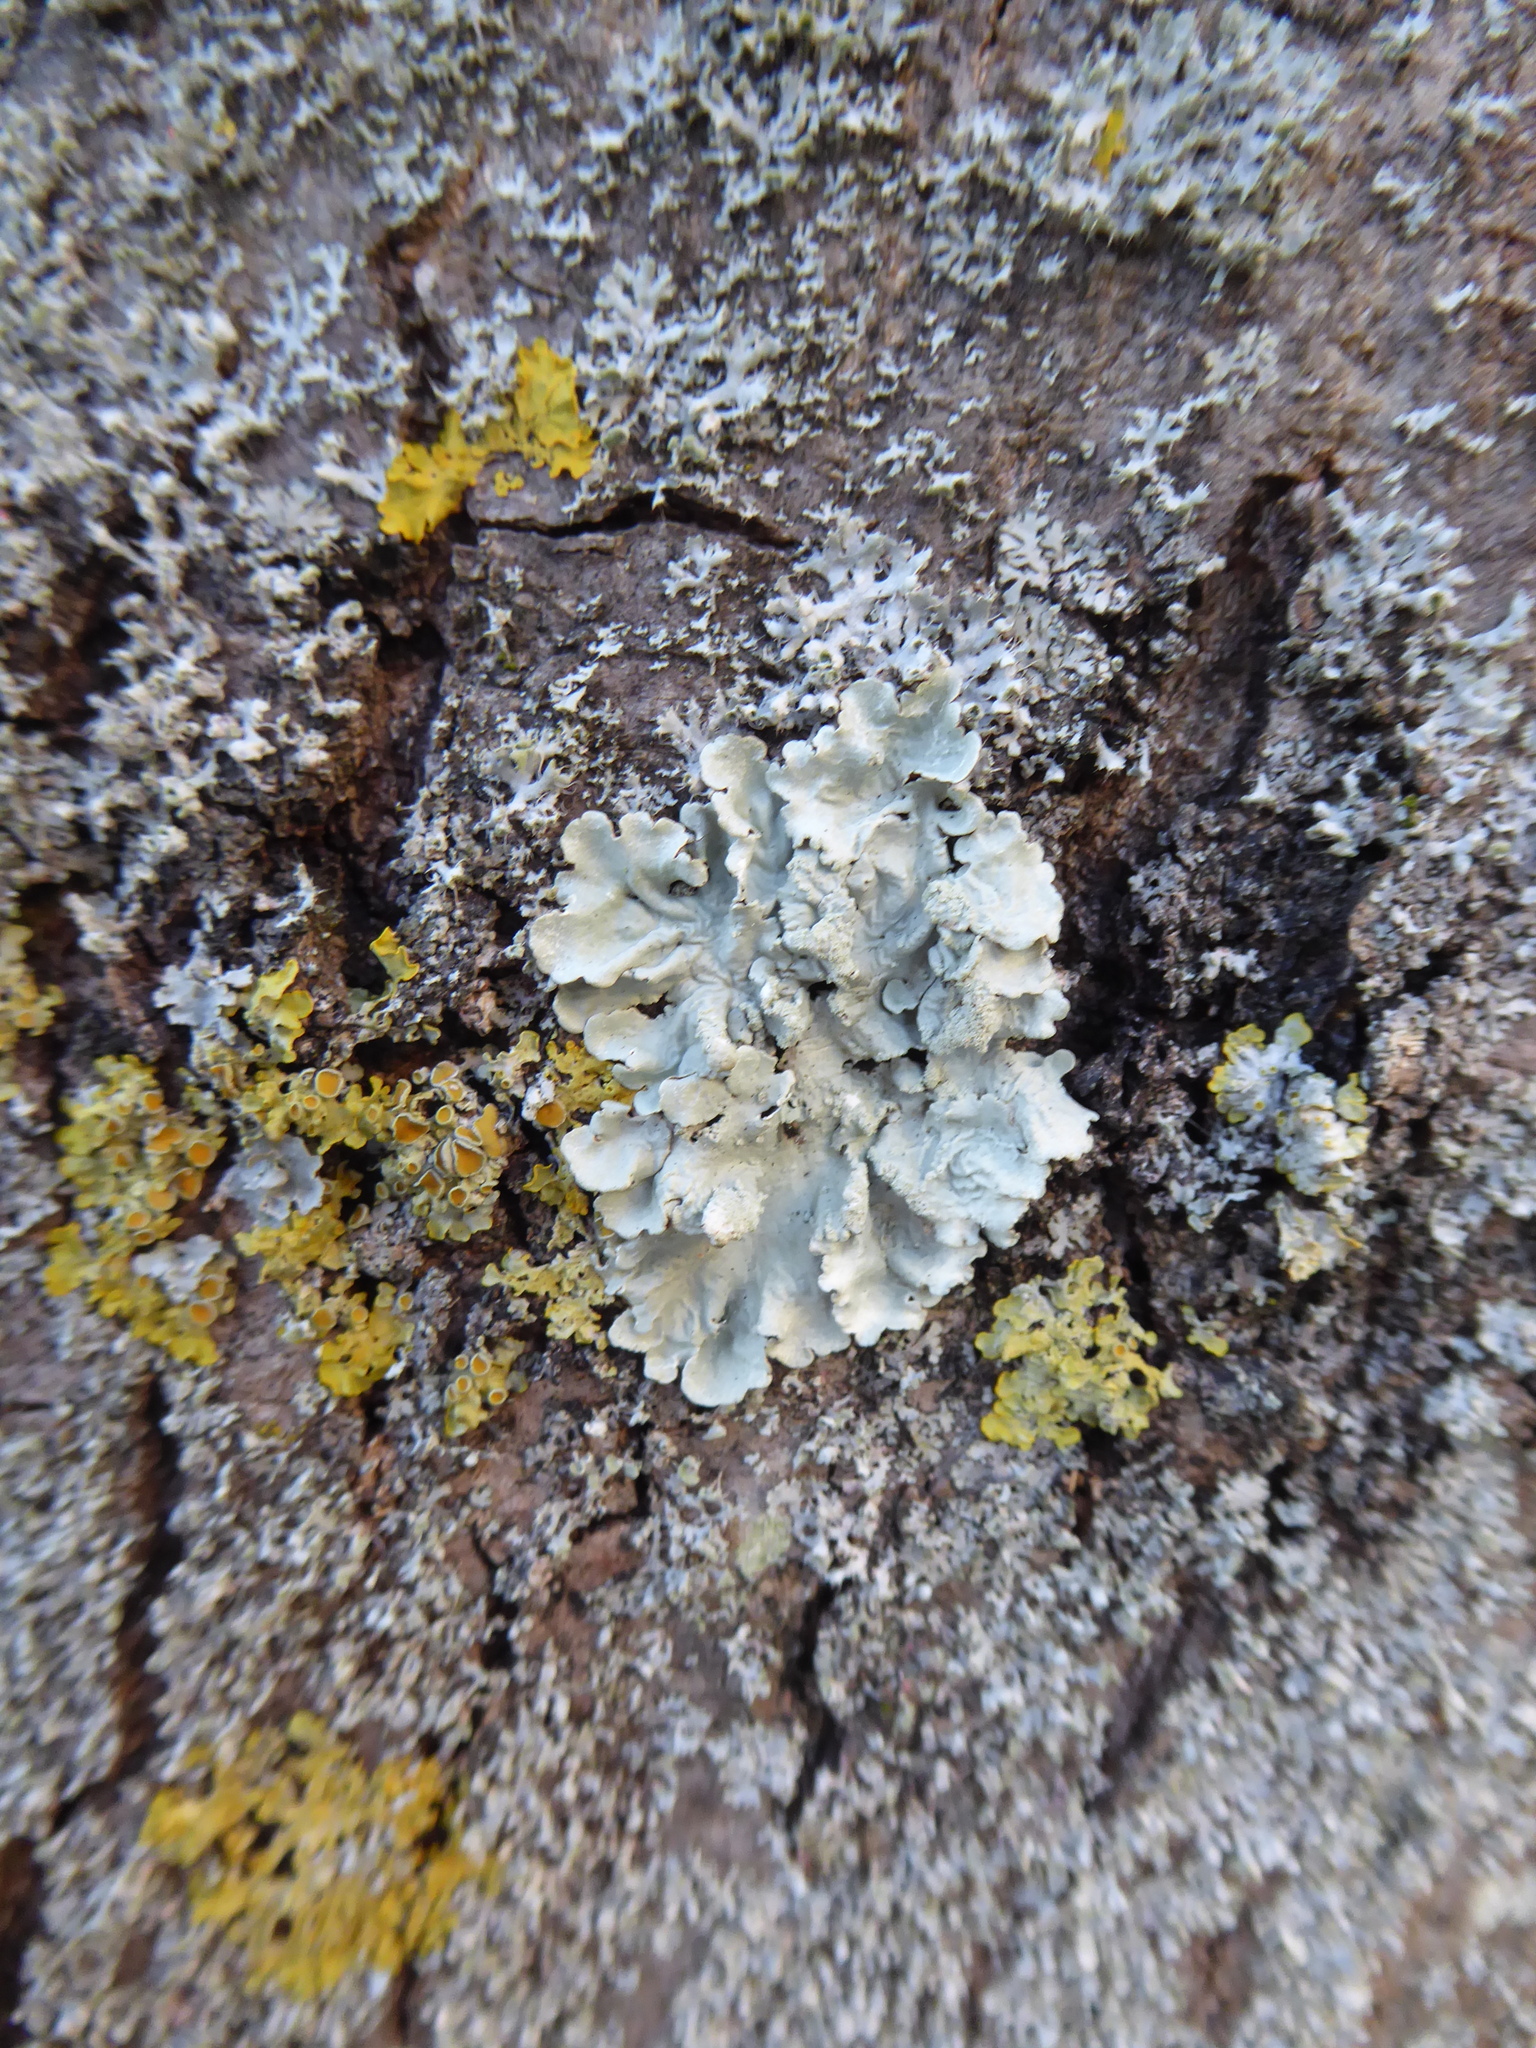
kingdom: Fungi
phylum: Ascomycota
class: Lecanoromycetes
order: Lecanorales
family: Parmeliaceae
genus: Flavoparmelia
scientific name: Flavoparmelia caperata
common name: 40-mile per hour lichen
